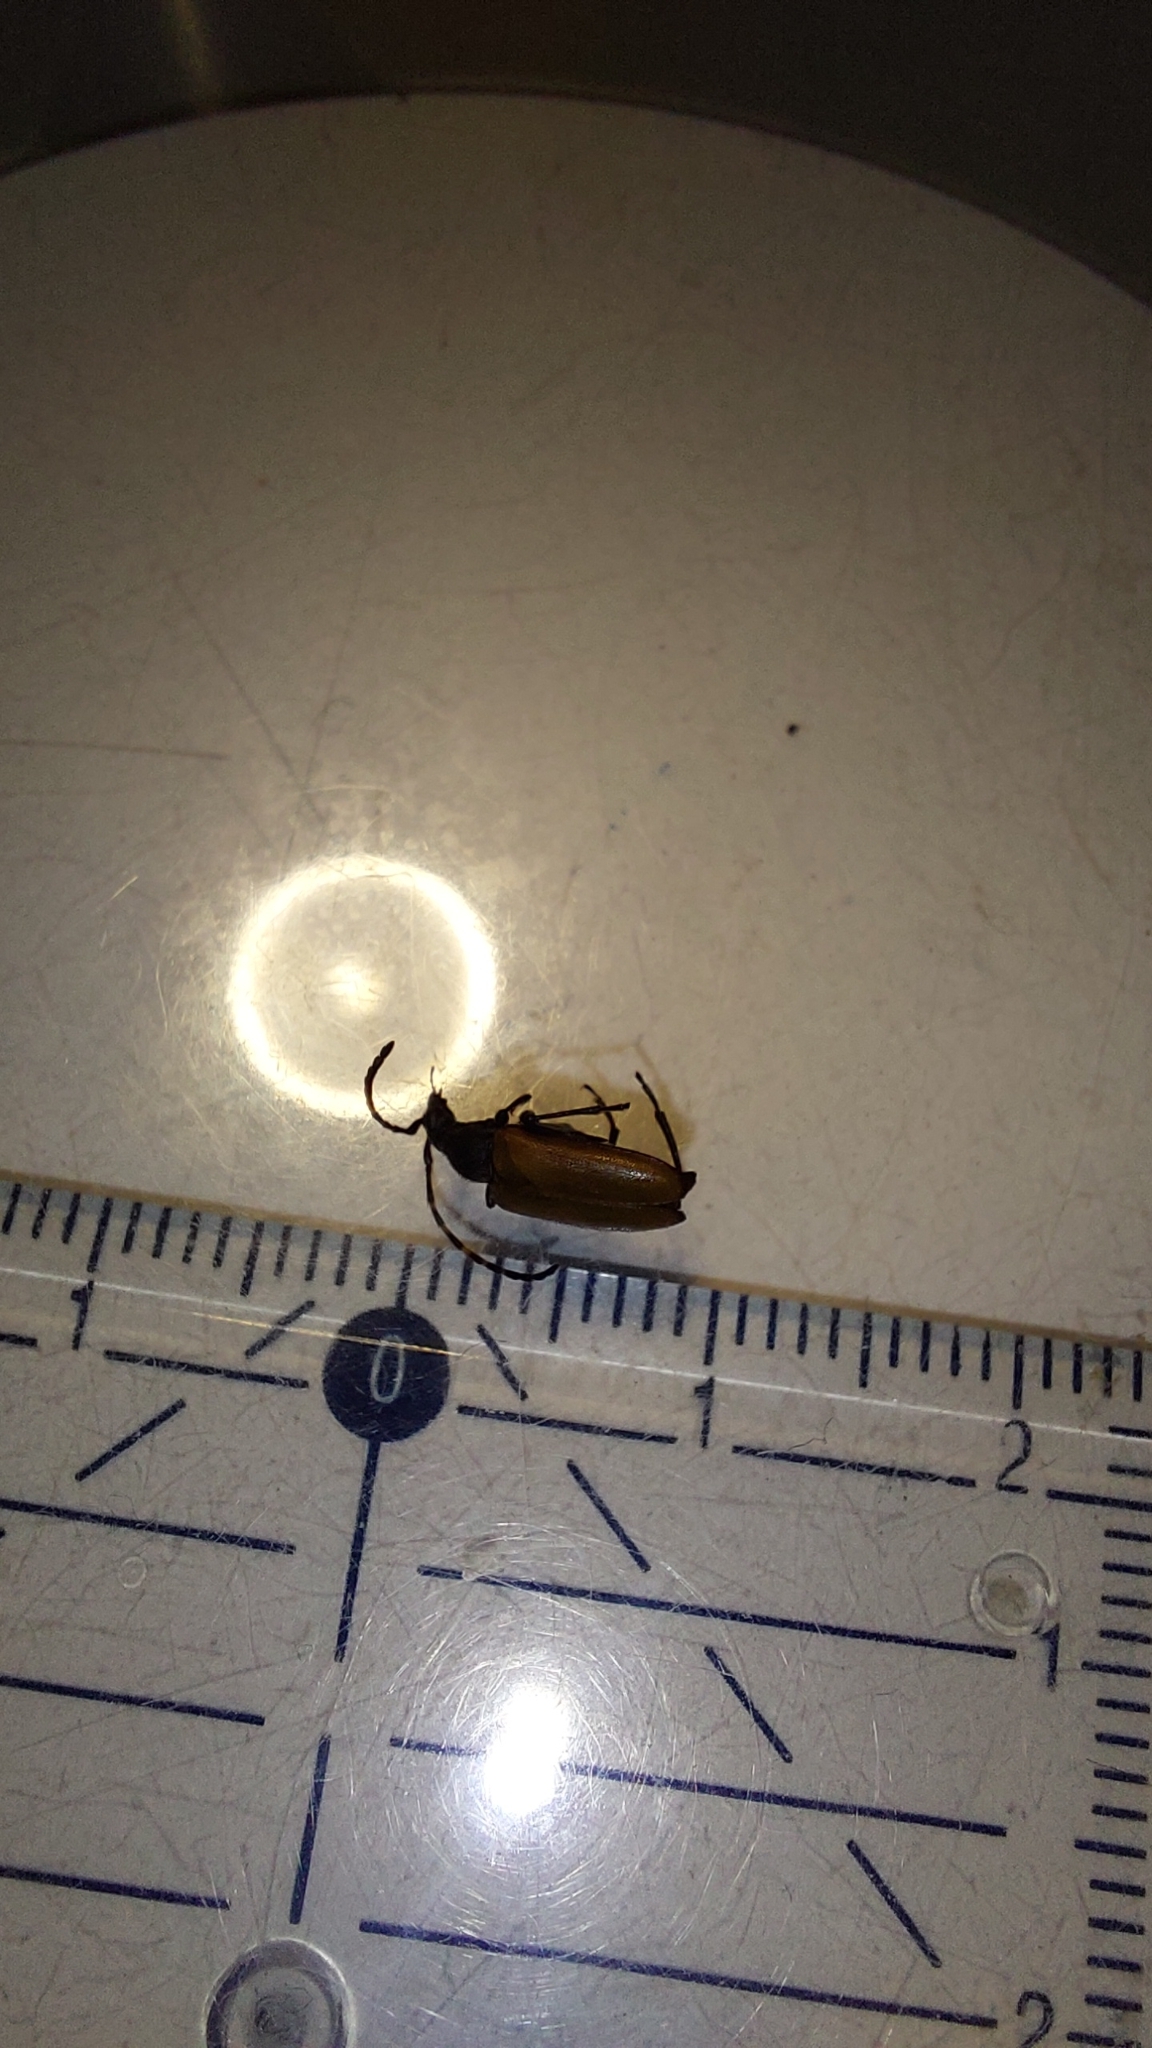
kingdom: Animalia
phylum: Arthropoda
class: Insecta
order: Coleoptera
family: Cerambycidae
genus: Paracorymbia
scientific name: Paracorymbia maculicornis
